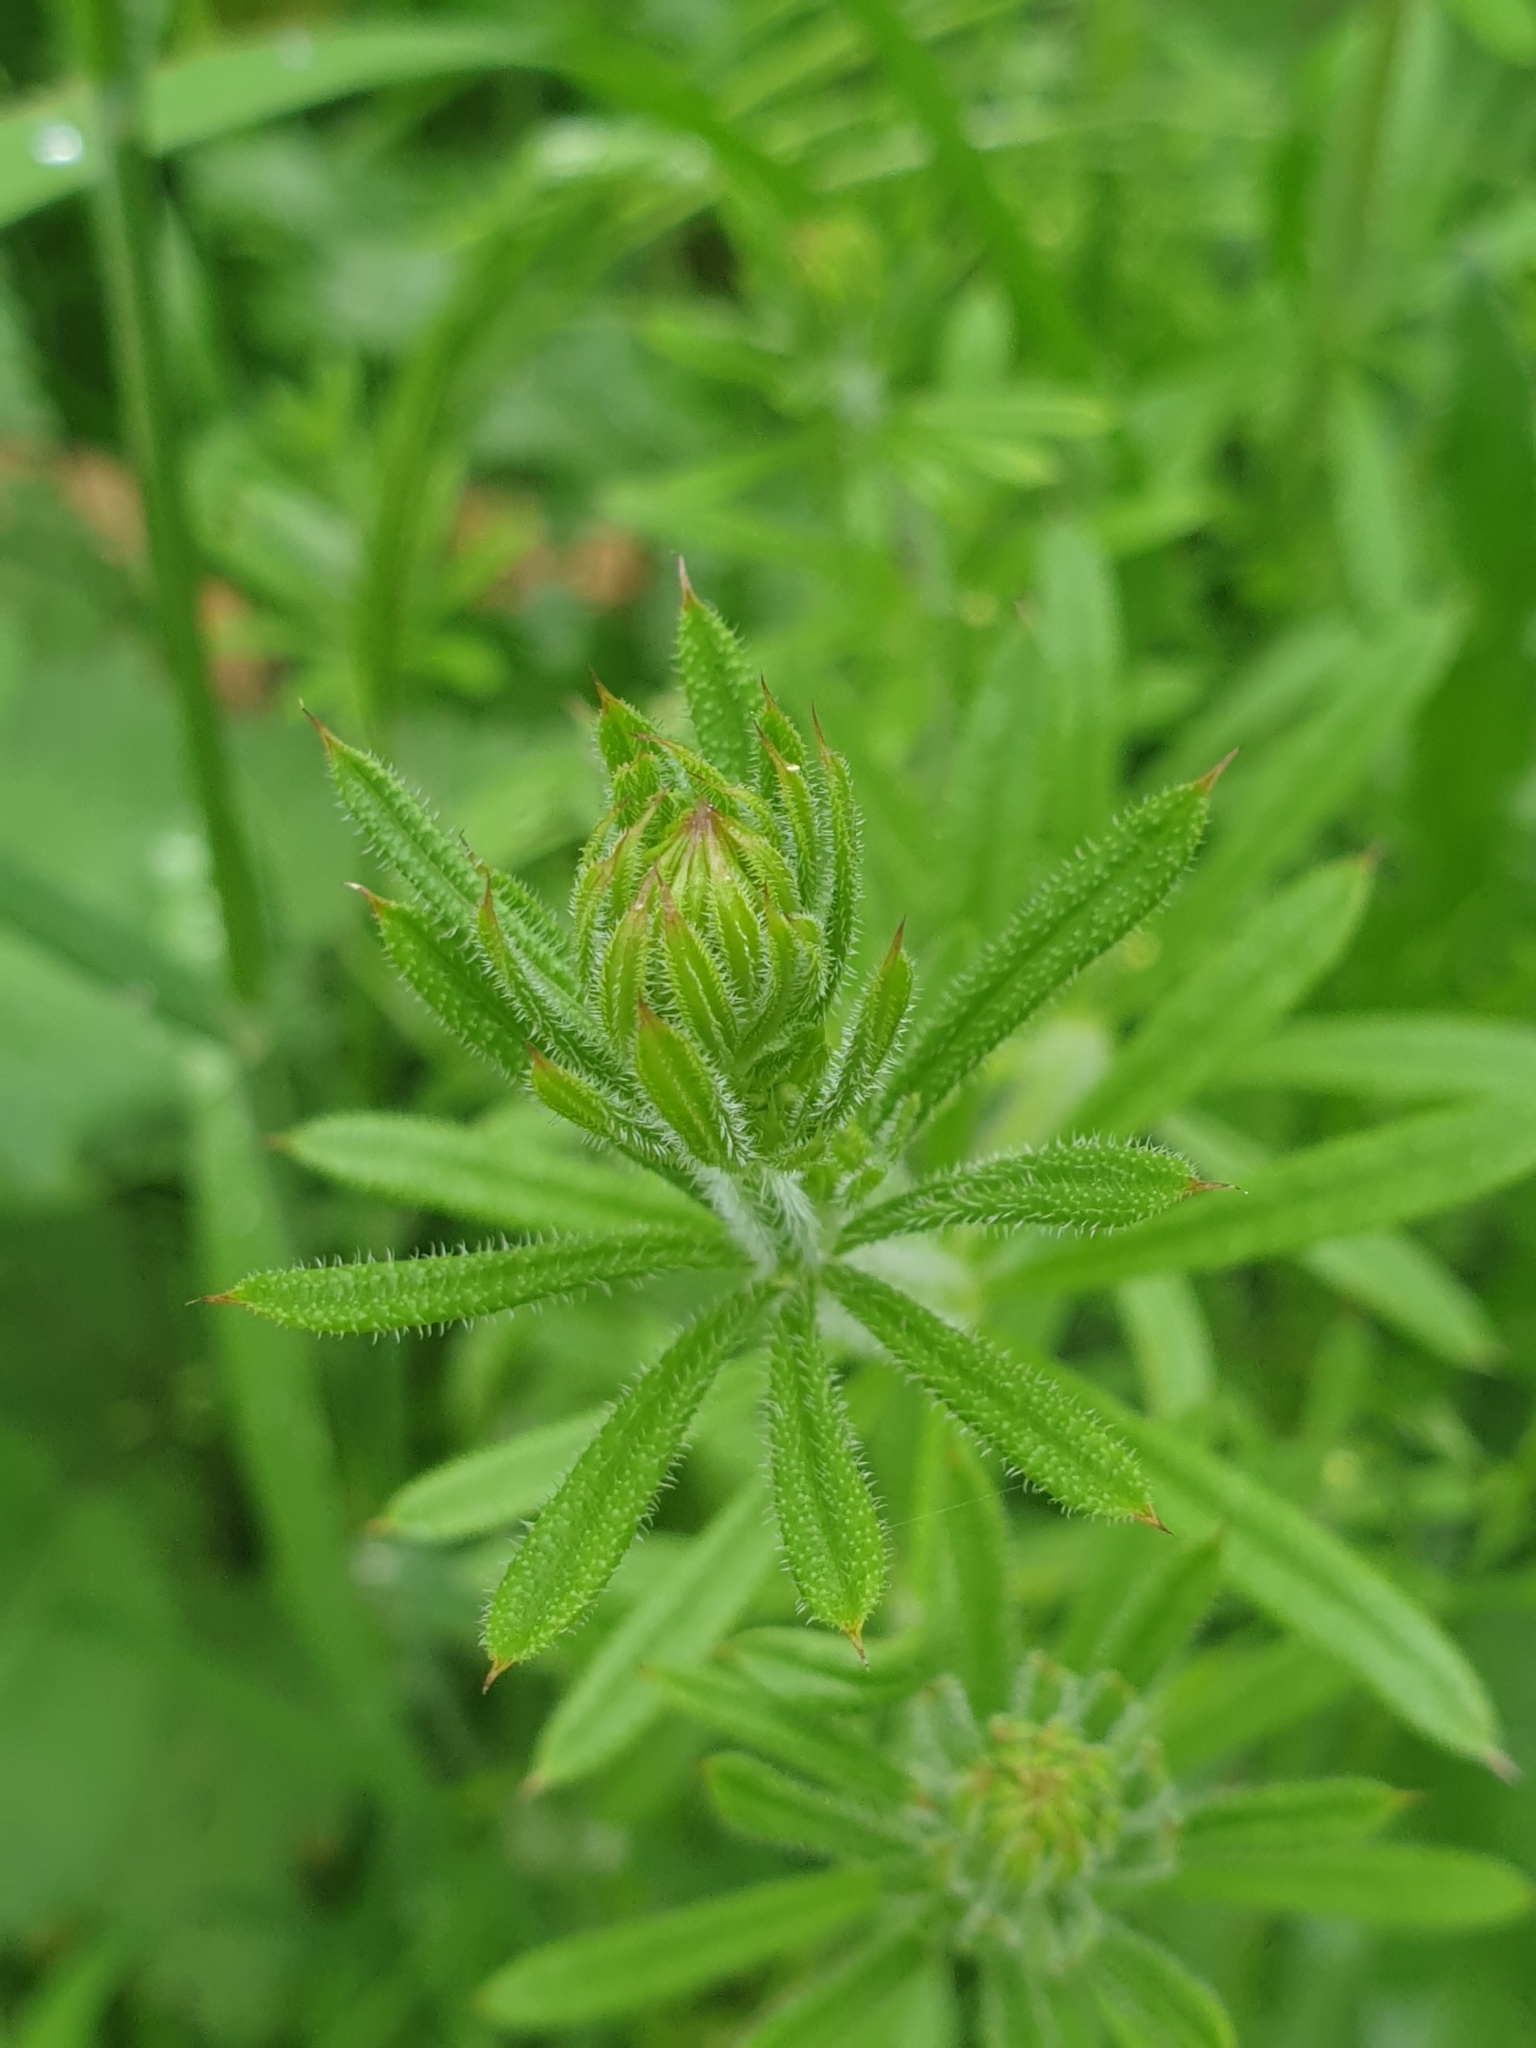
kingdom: Plantae
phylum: Tracheophyta
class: Magnoliopsida
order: Gentianales
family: Rubiaceae
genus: Galium
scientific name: Galium aparine
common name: Cleavers
